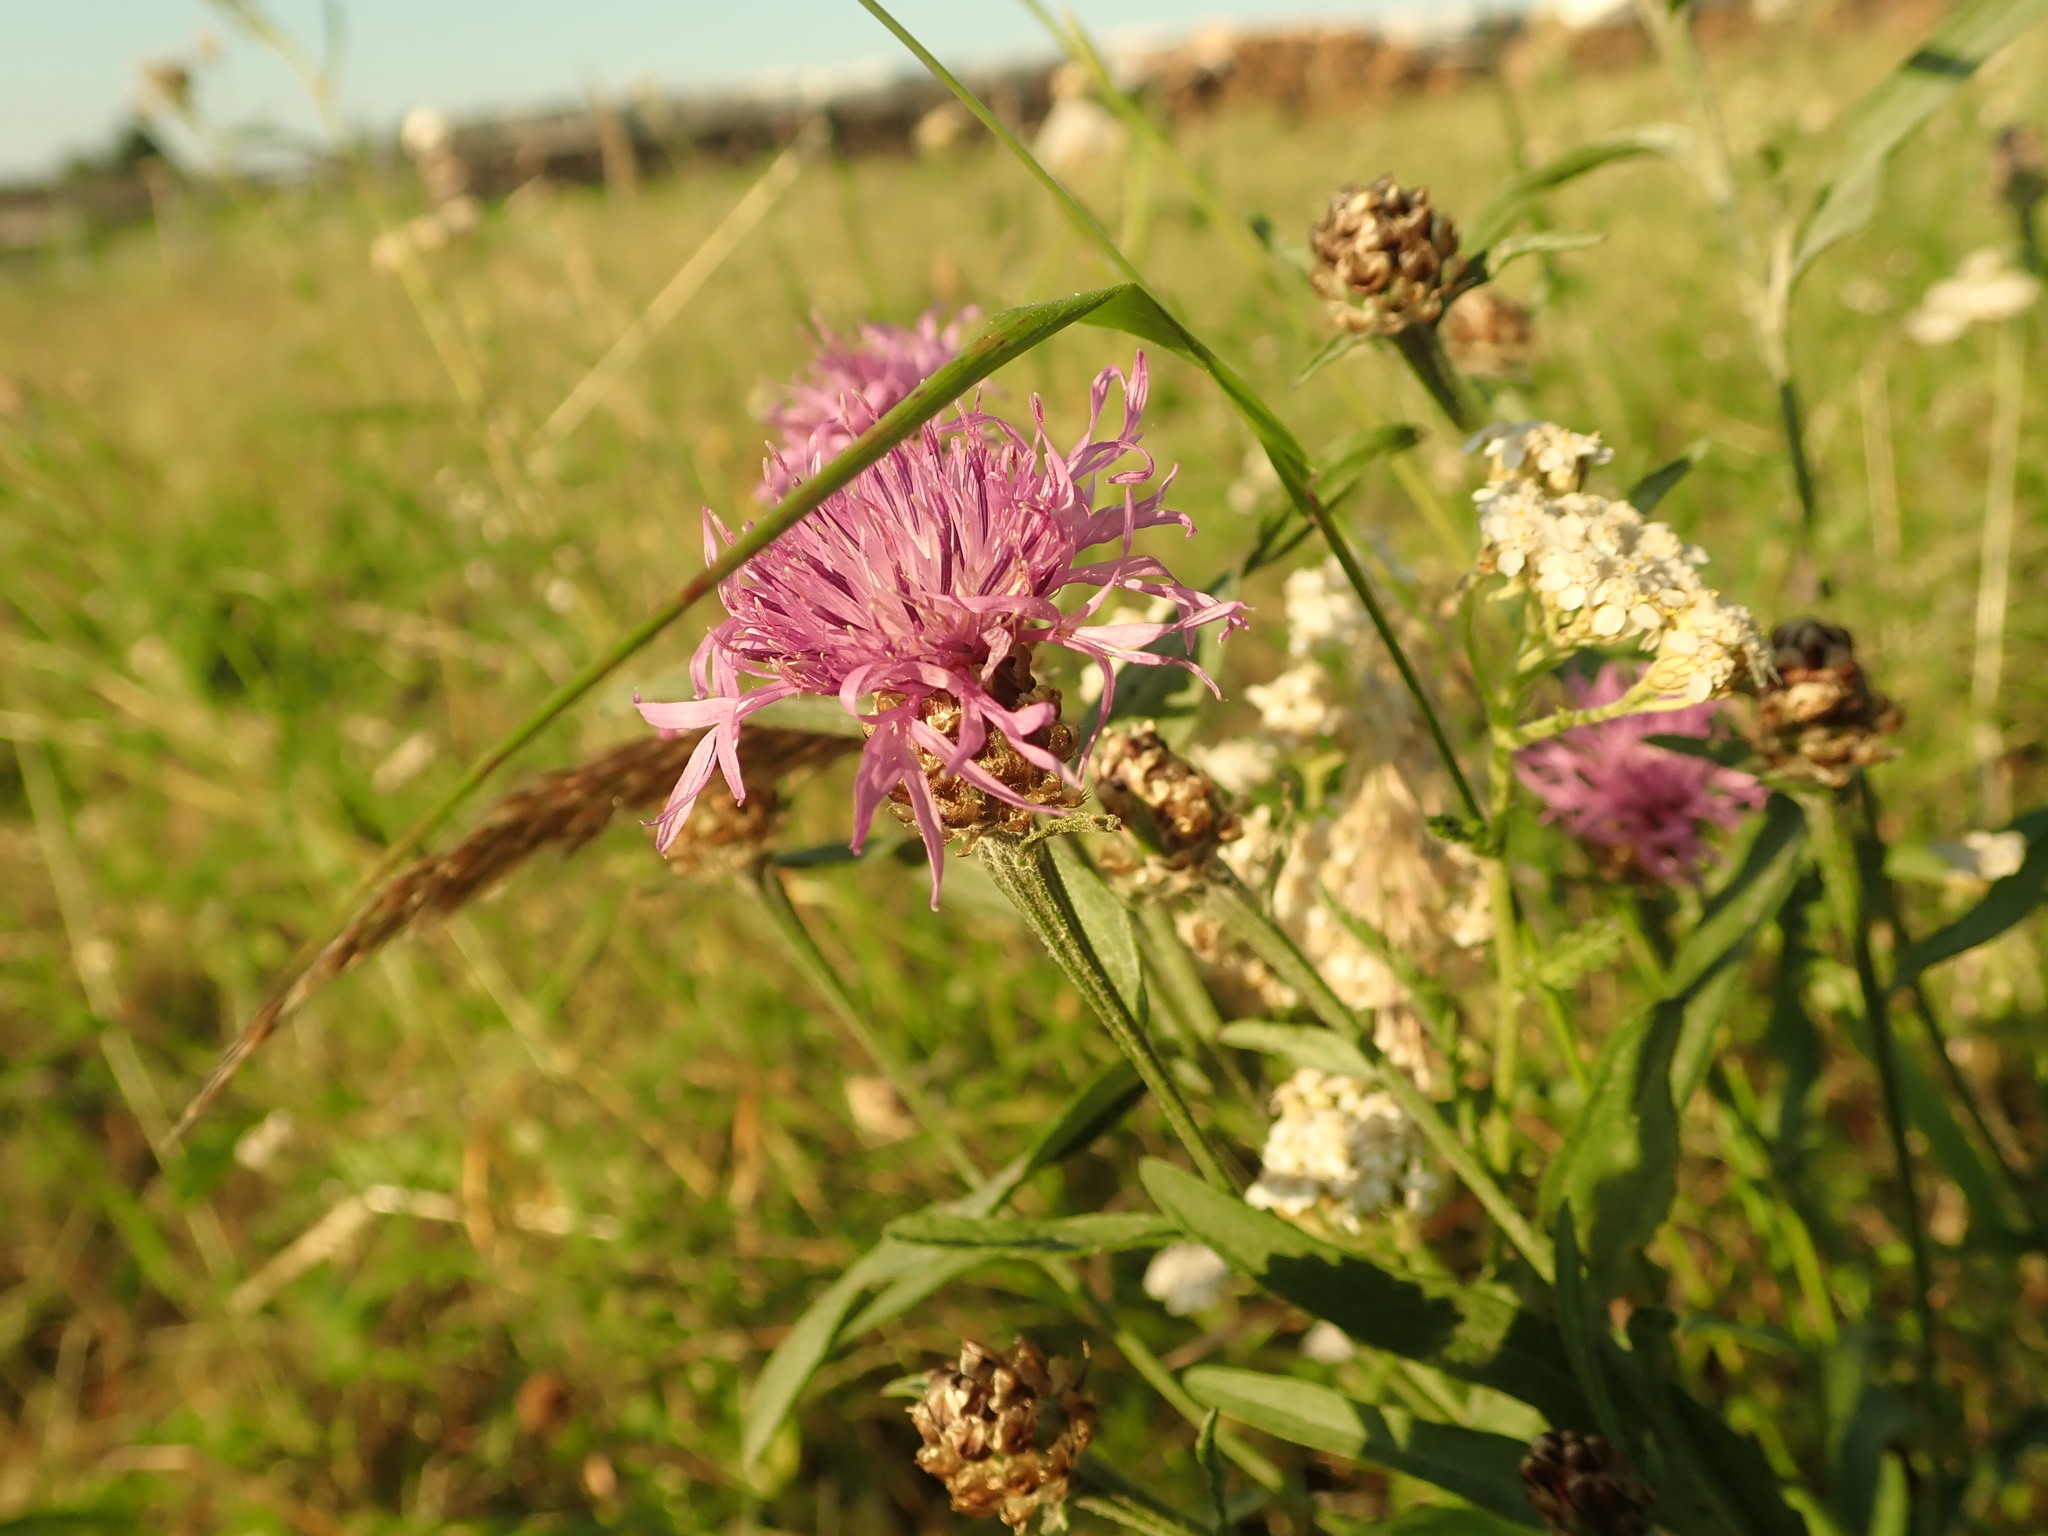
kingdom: Plantae
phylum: Tracheophyta
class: Magnoliopsida
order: Asterales
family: Asteraceae
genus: Centaurea
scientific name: Centaurea jacea
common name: Brown knapweed
